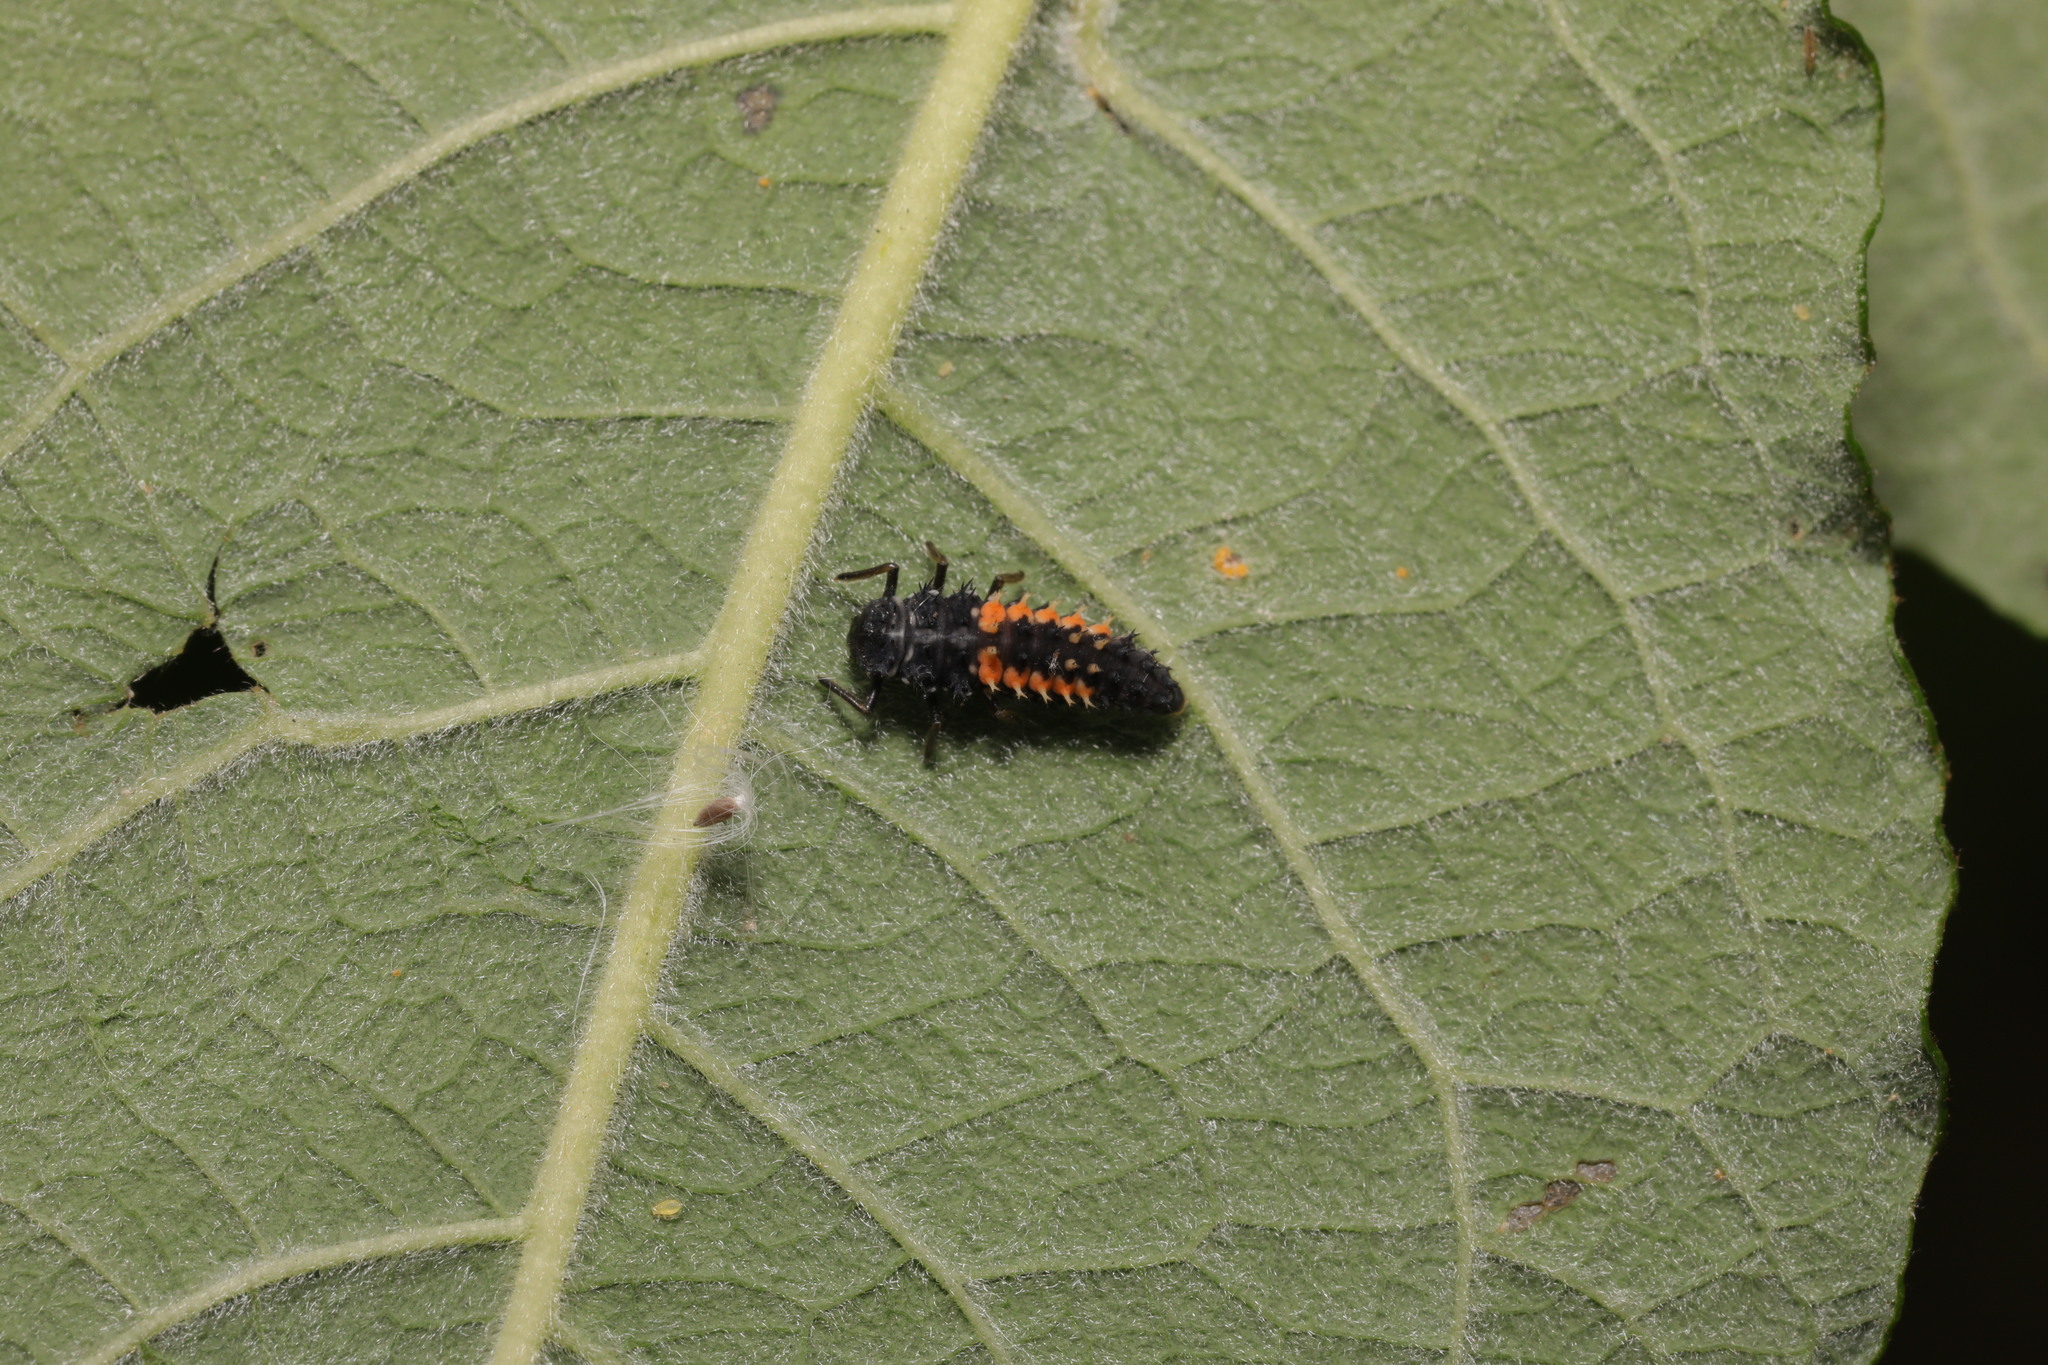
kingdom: Animalia
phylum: Arthropoda
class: Insecta
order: Coleoptera
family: Coccinellidae
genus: Harmonia
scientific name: Harmonia axyridis
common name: Harlequin ladybird
